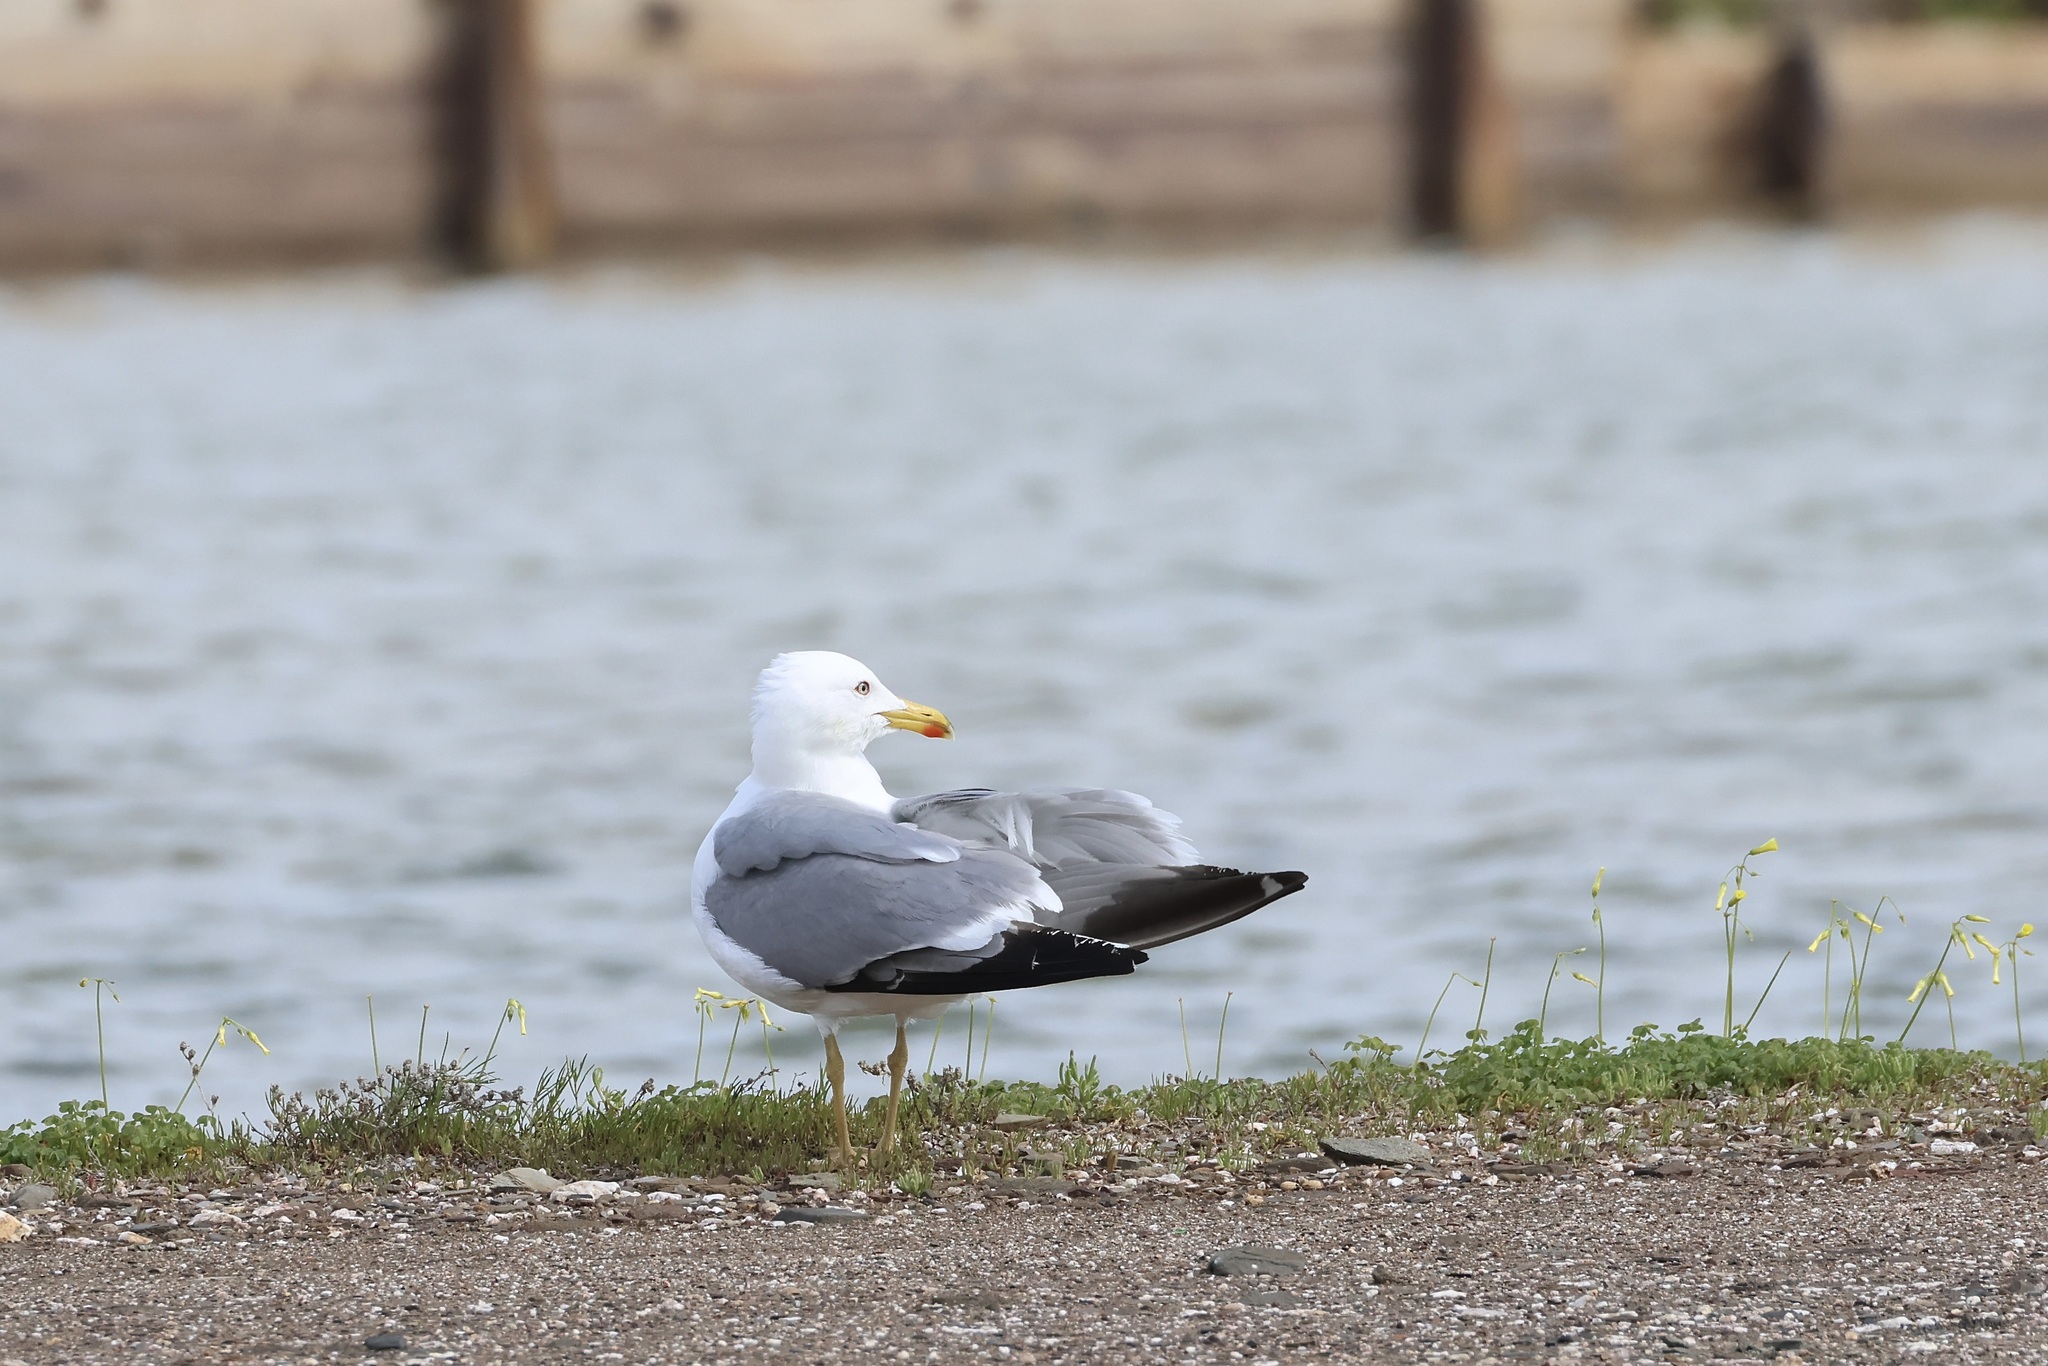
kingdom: Animalia
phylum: Chordata
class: Aves
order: Charadriiformes
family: Laridae
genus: Larus
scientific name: Larus michahellis
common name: Yellow-legged gull
